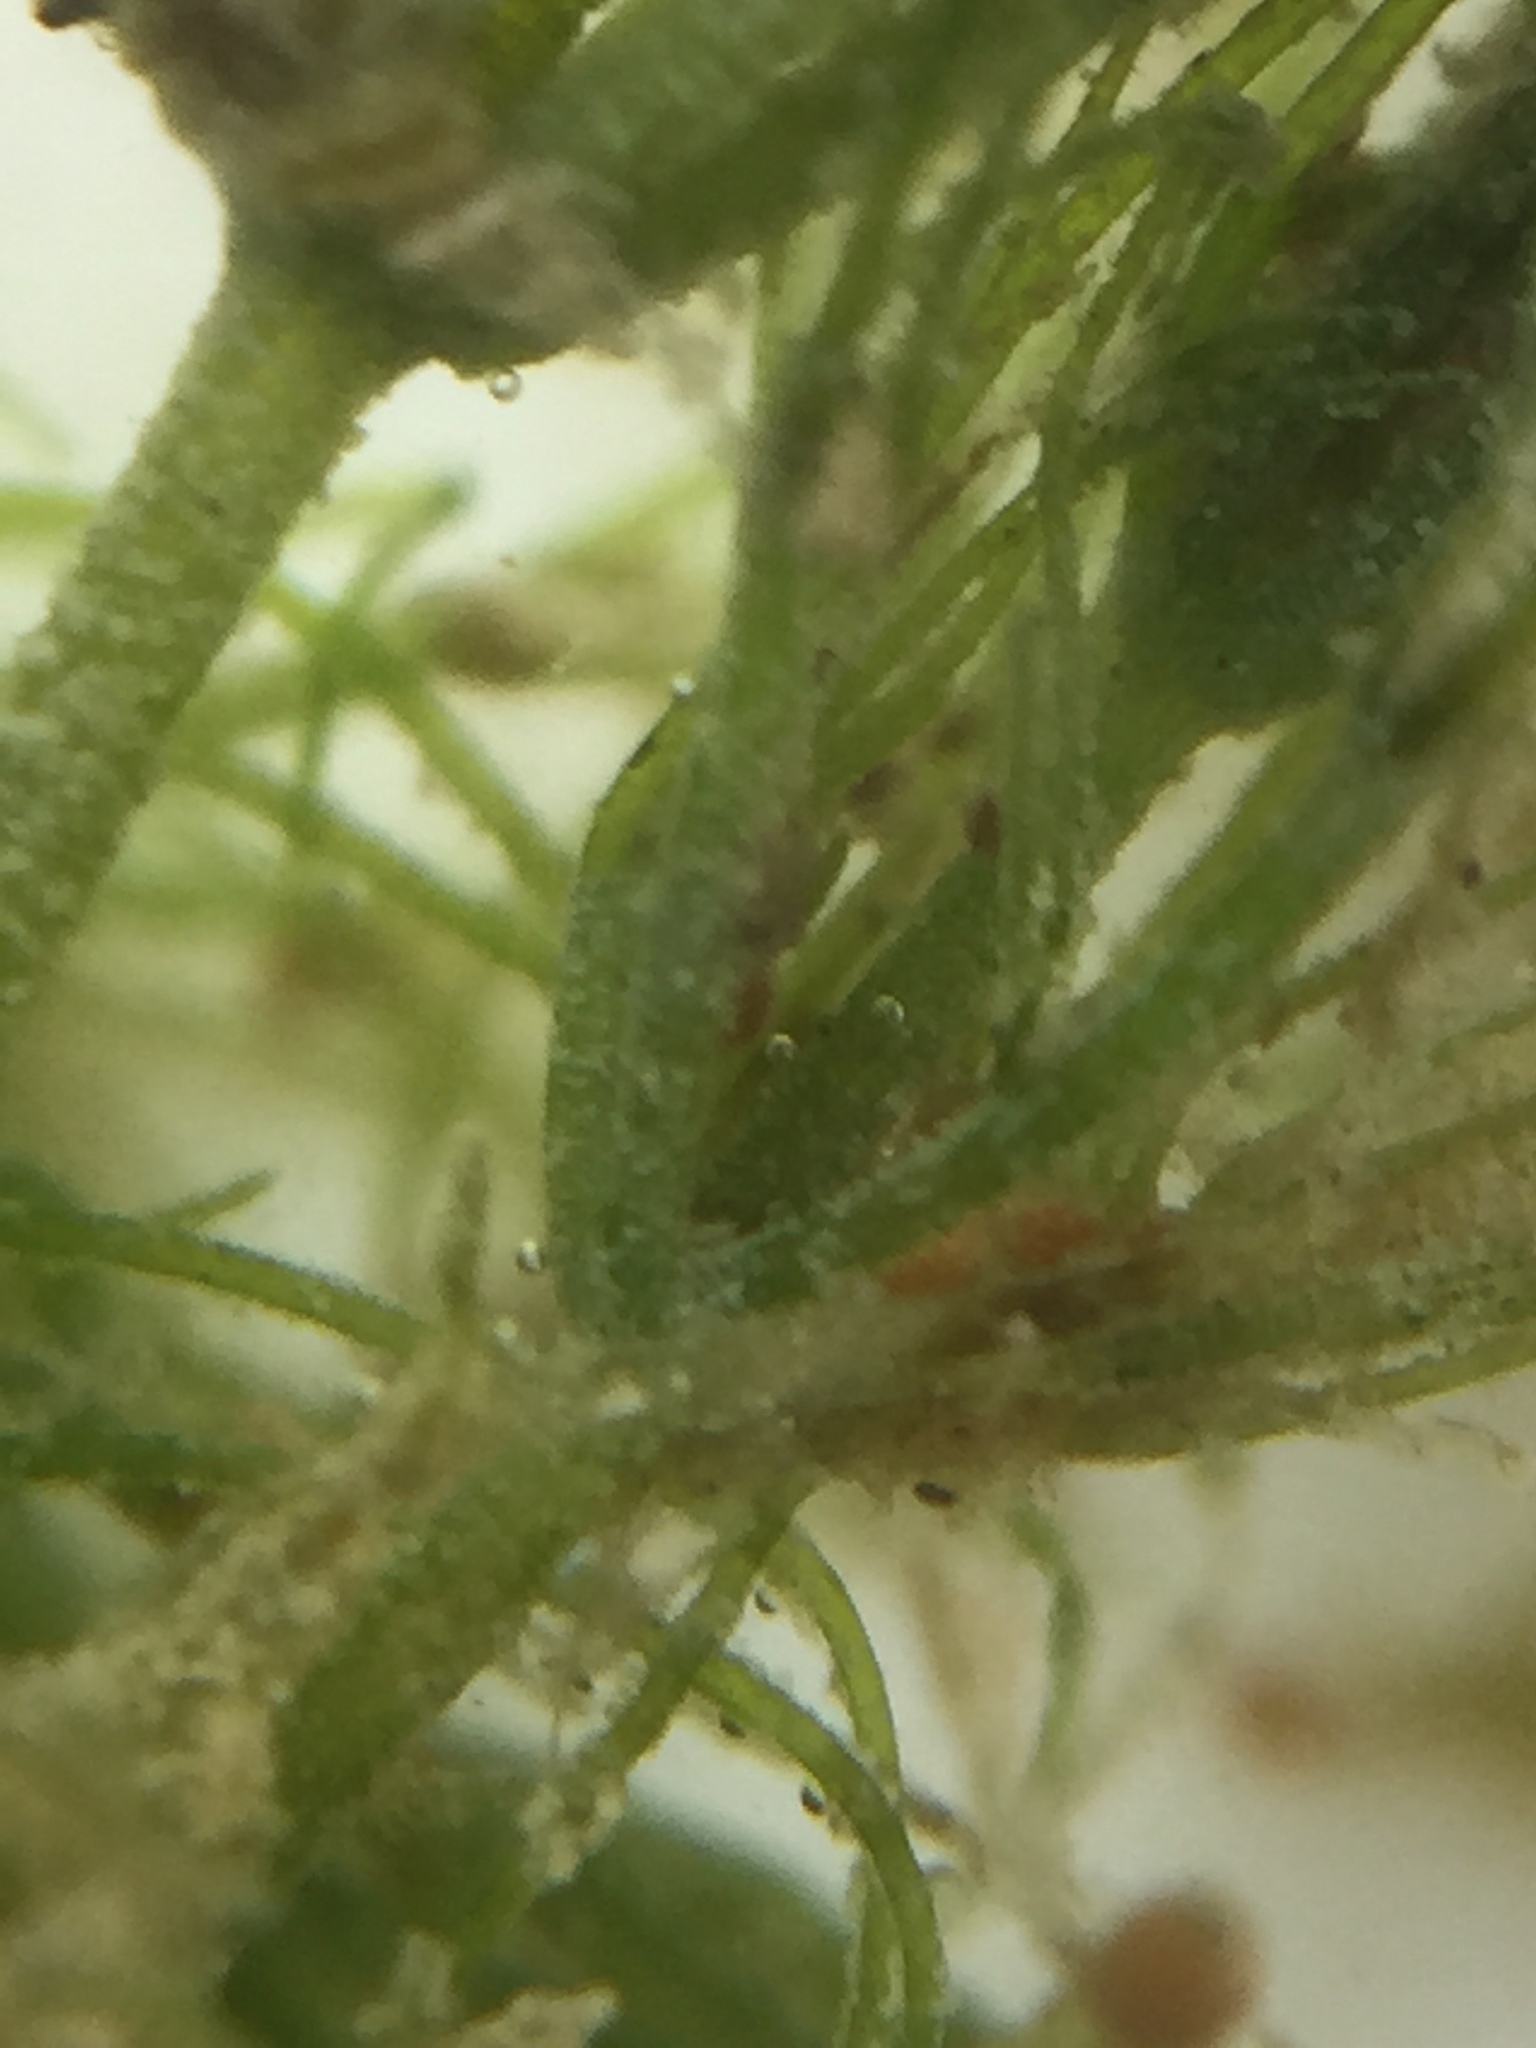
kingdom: Plantae
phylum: Charophyta
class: Charophyceae
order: Charales
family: Characeae
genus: Chara
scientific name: Chara vulgaris
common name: Common stonewort
